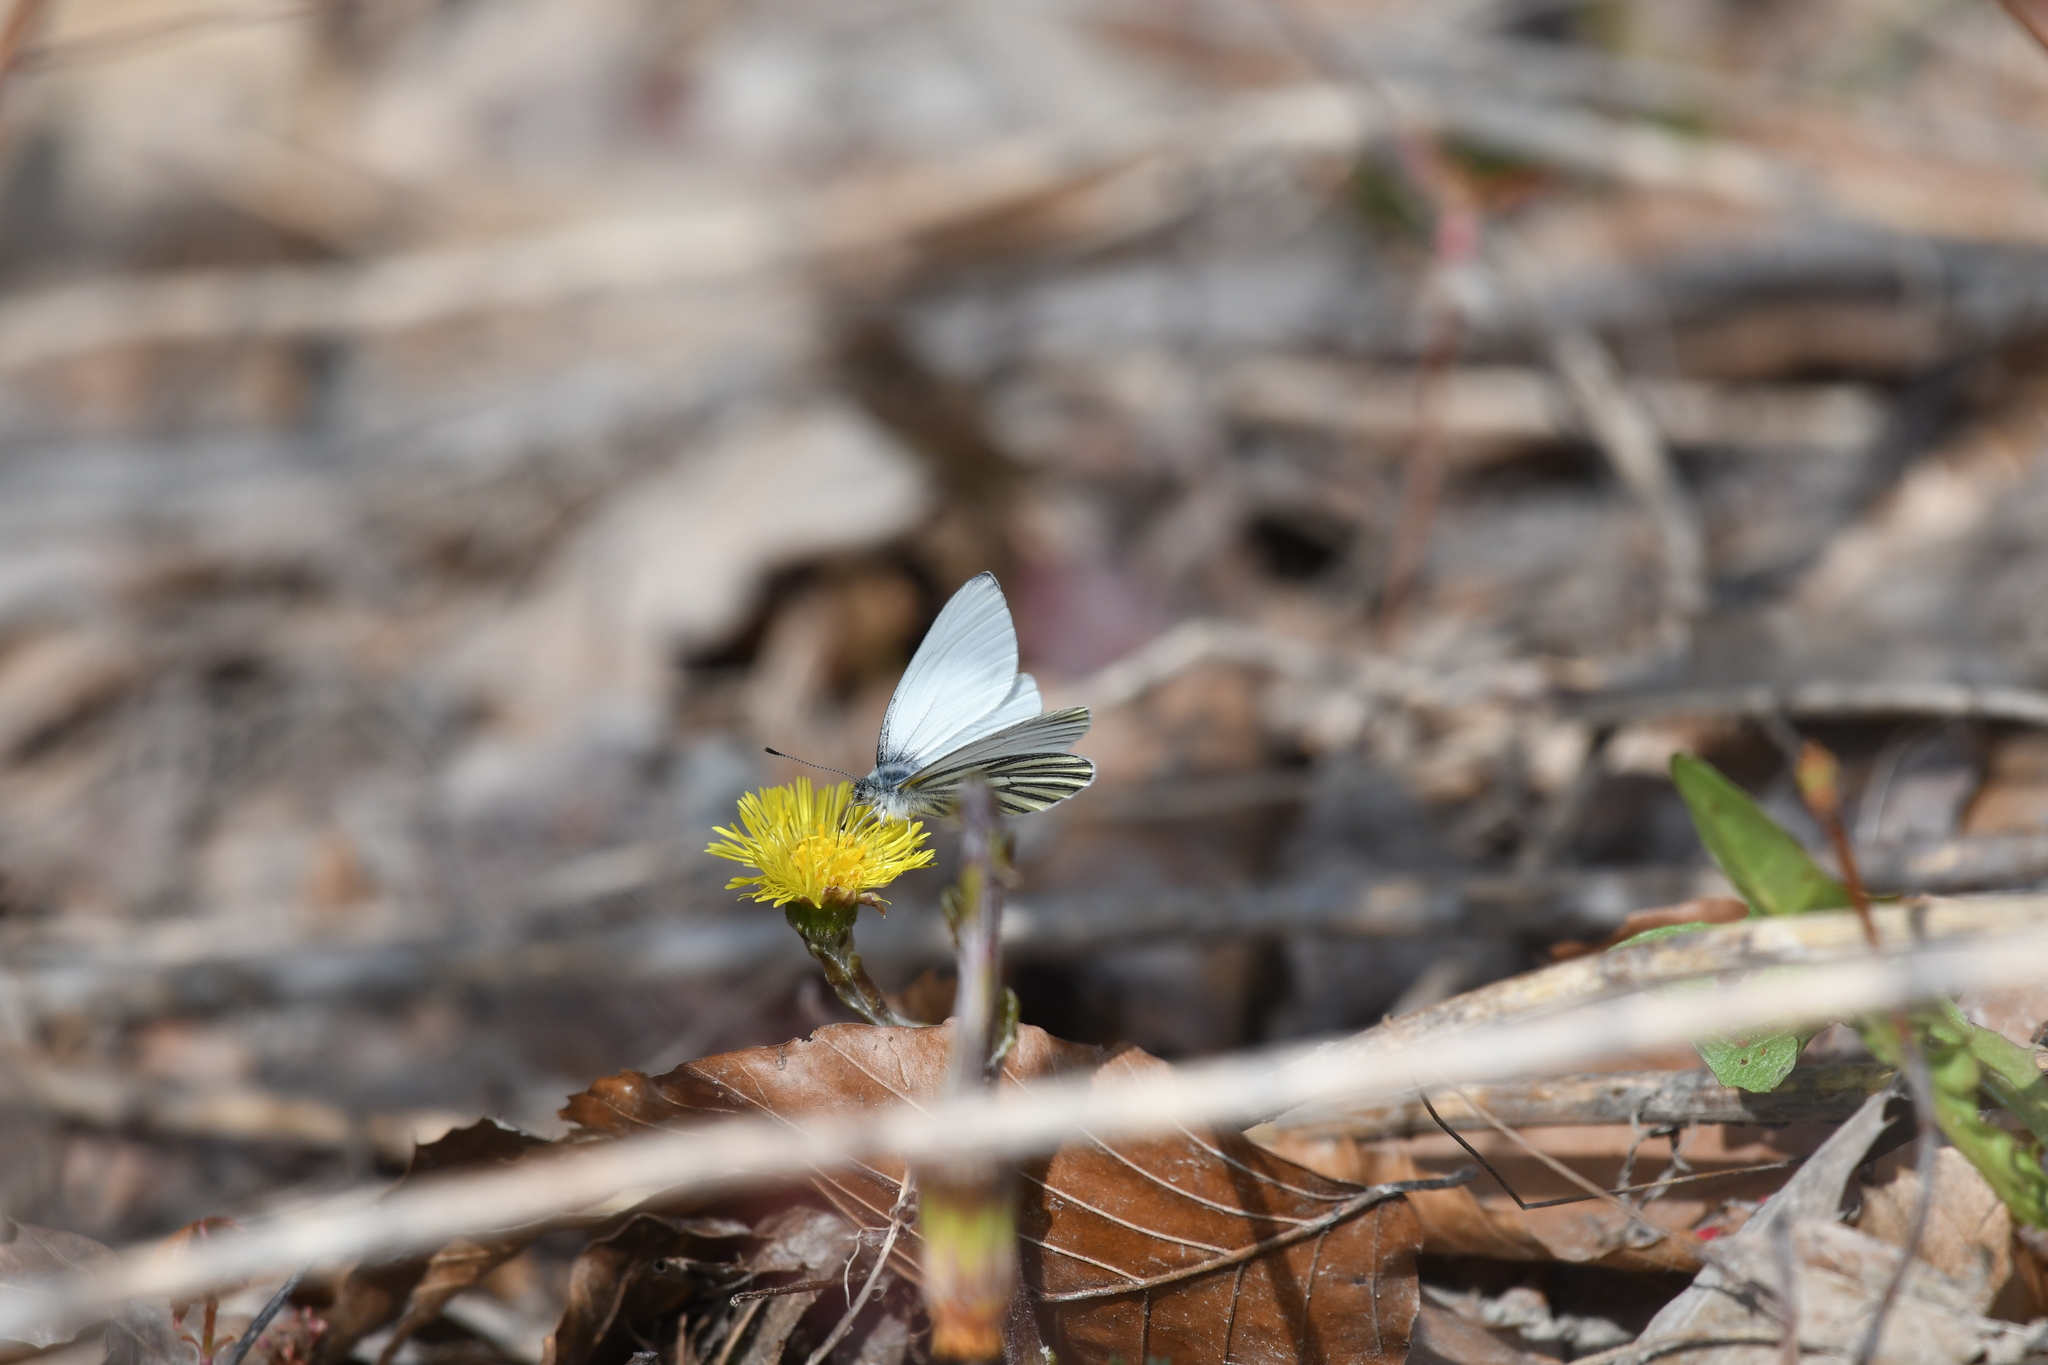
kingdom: Animalia
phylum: Arthropoda
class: Insecta
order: Lepidoptera
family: Pieridae
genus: Pieris
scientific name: Pieris oleracea
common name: Mustard white
